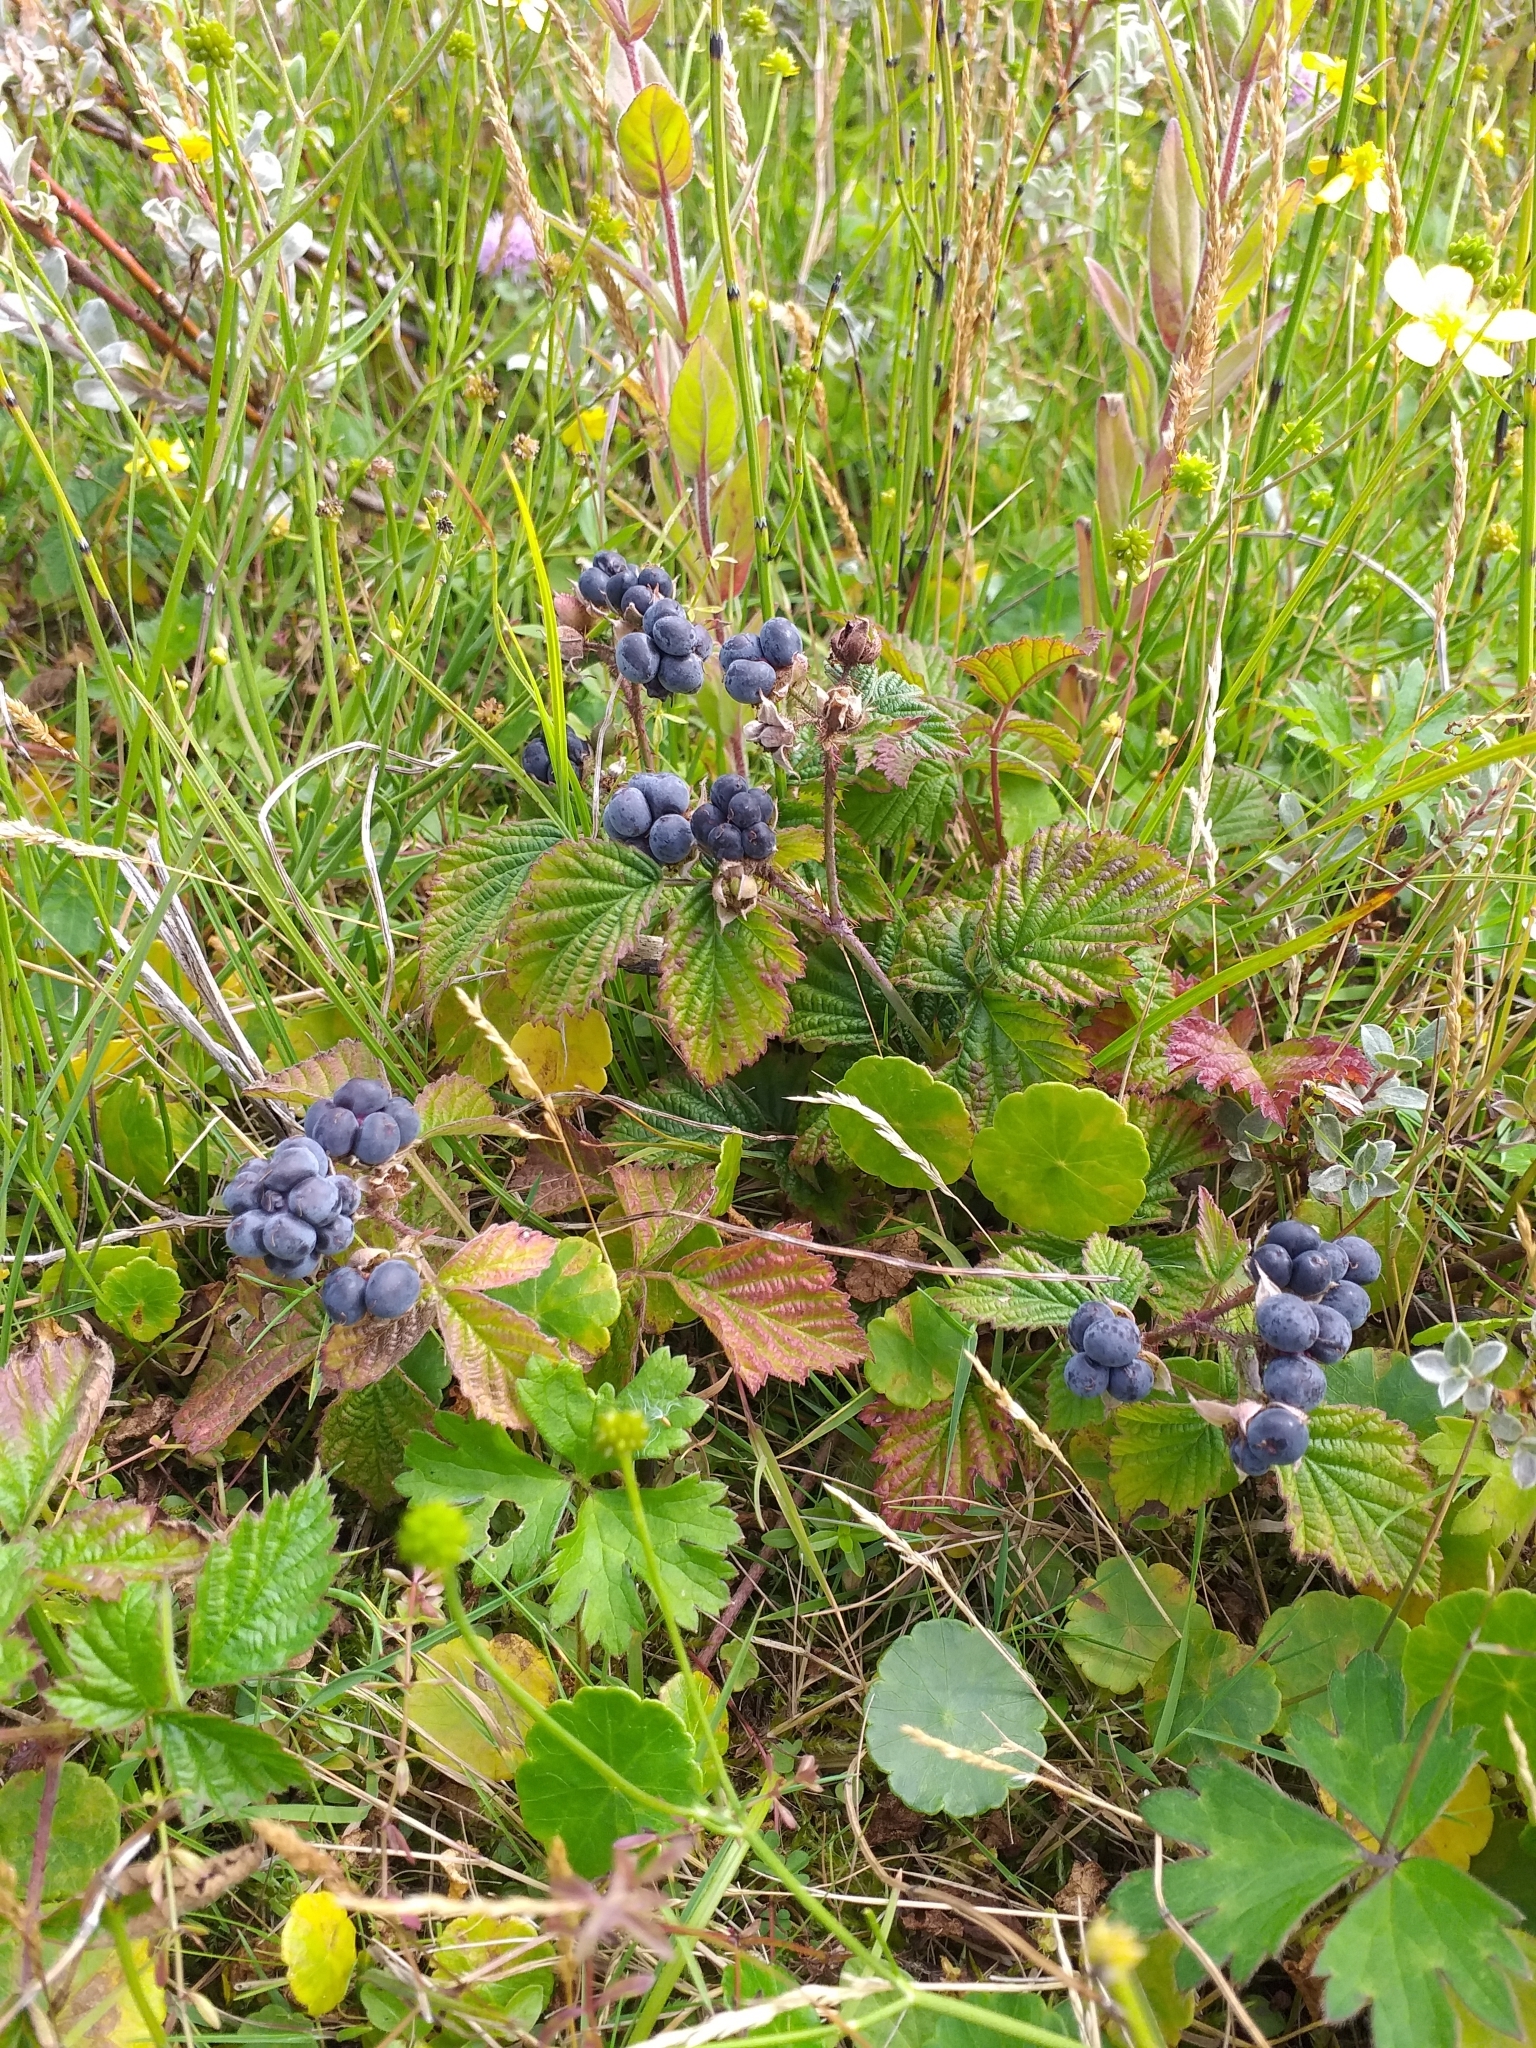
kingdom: Plantae
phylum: Tracheophyta
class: Magnoliopsida
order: Rosales
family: Rosaceae
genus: Rubus
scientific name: Rubus caesius
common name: Dewberry
